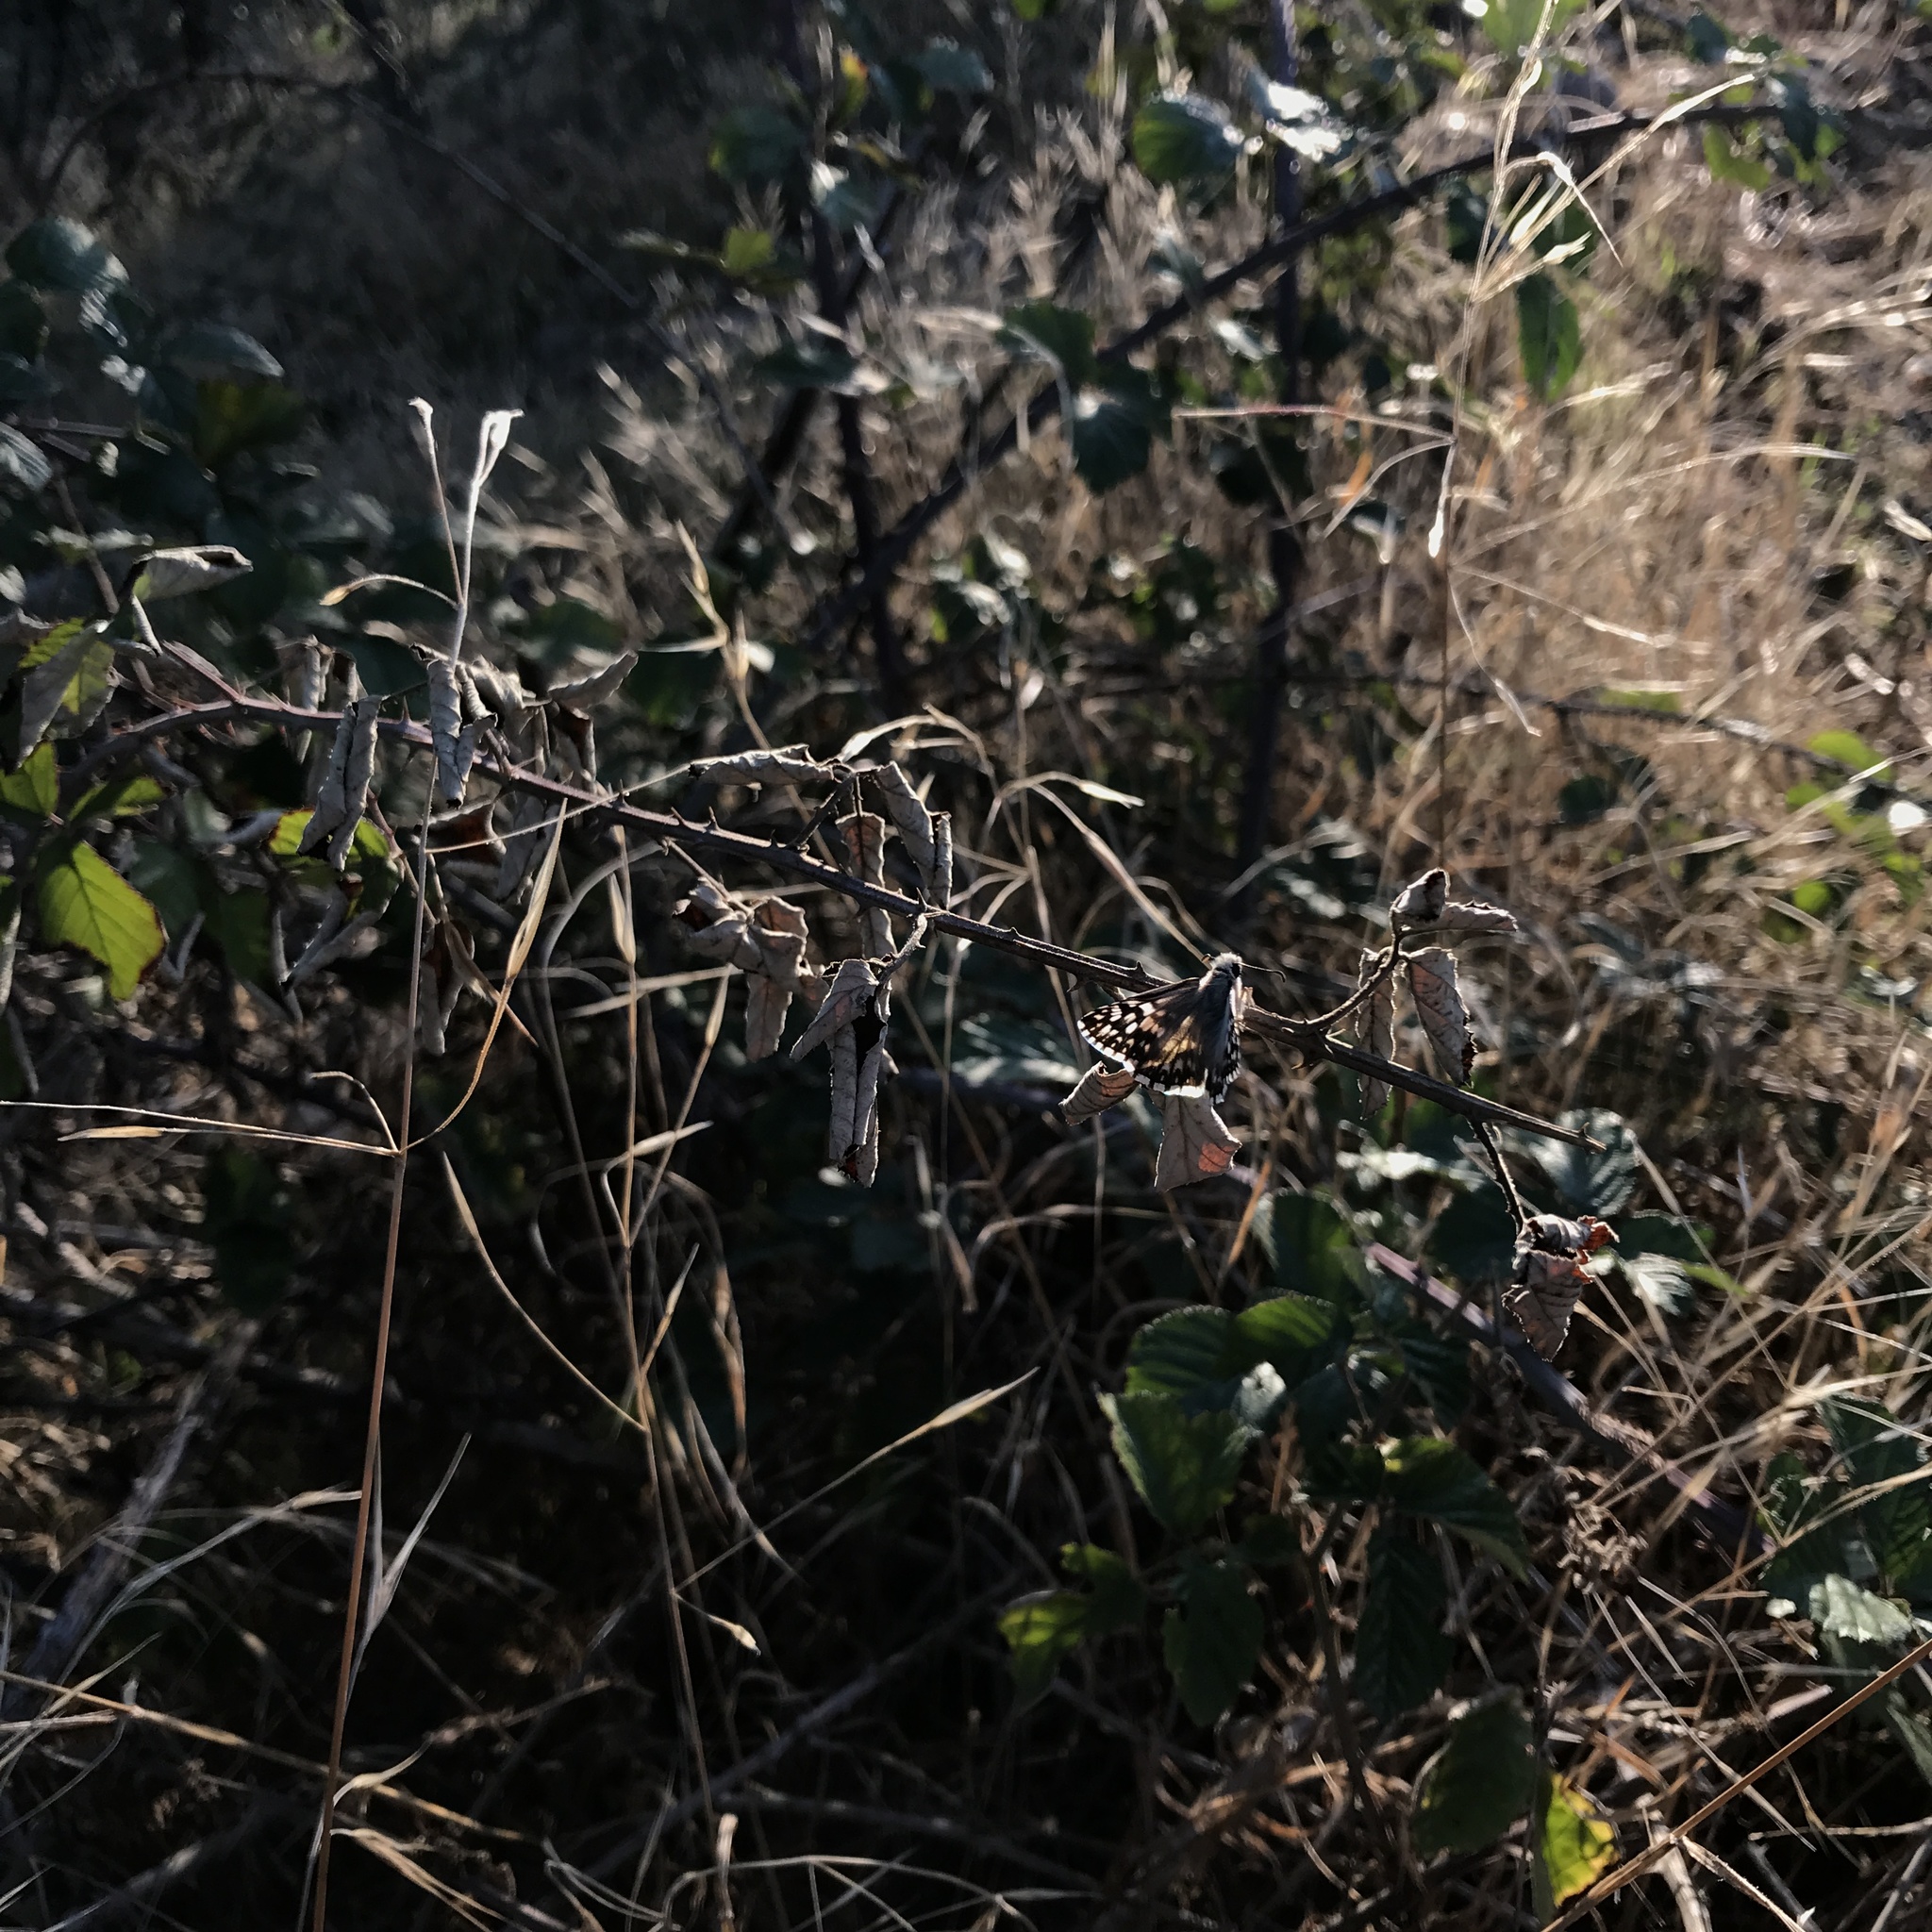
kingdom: Animalia
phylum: Arthropoda
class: Insecta
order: Lepidoptera
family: Hesperiidae
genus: Heliopetes
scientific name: Heliopetes americanus
